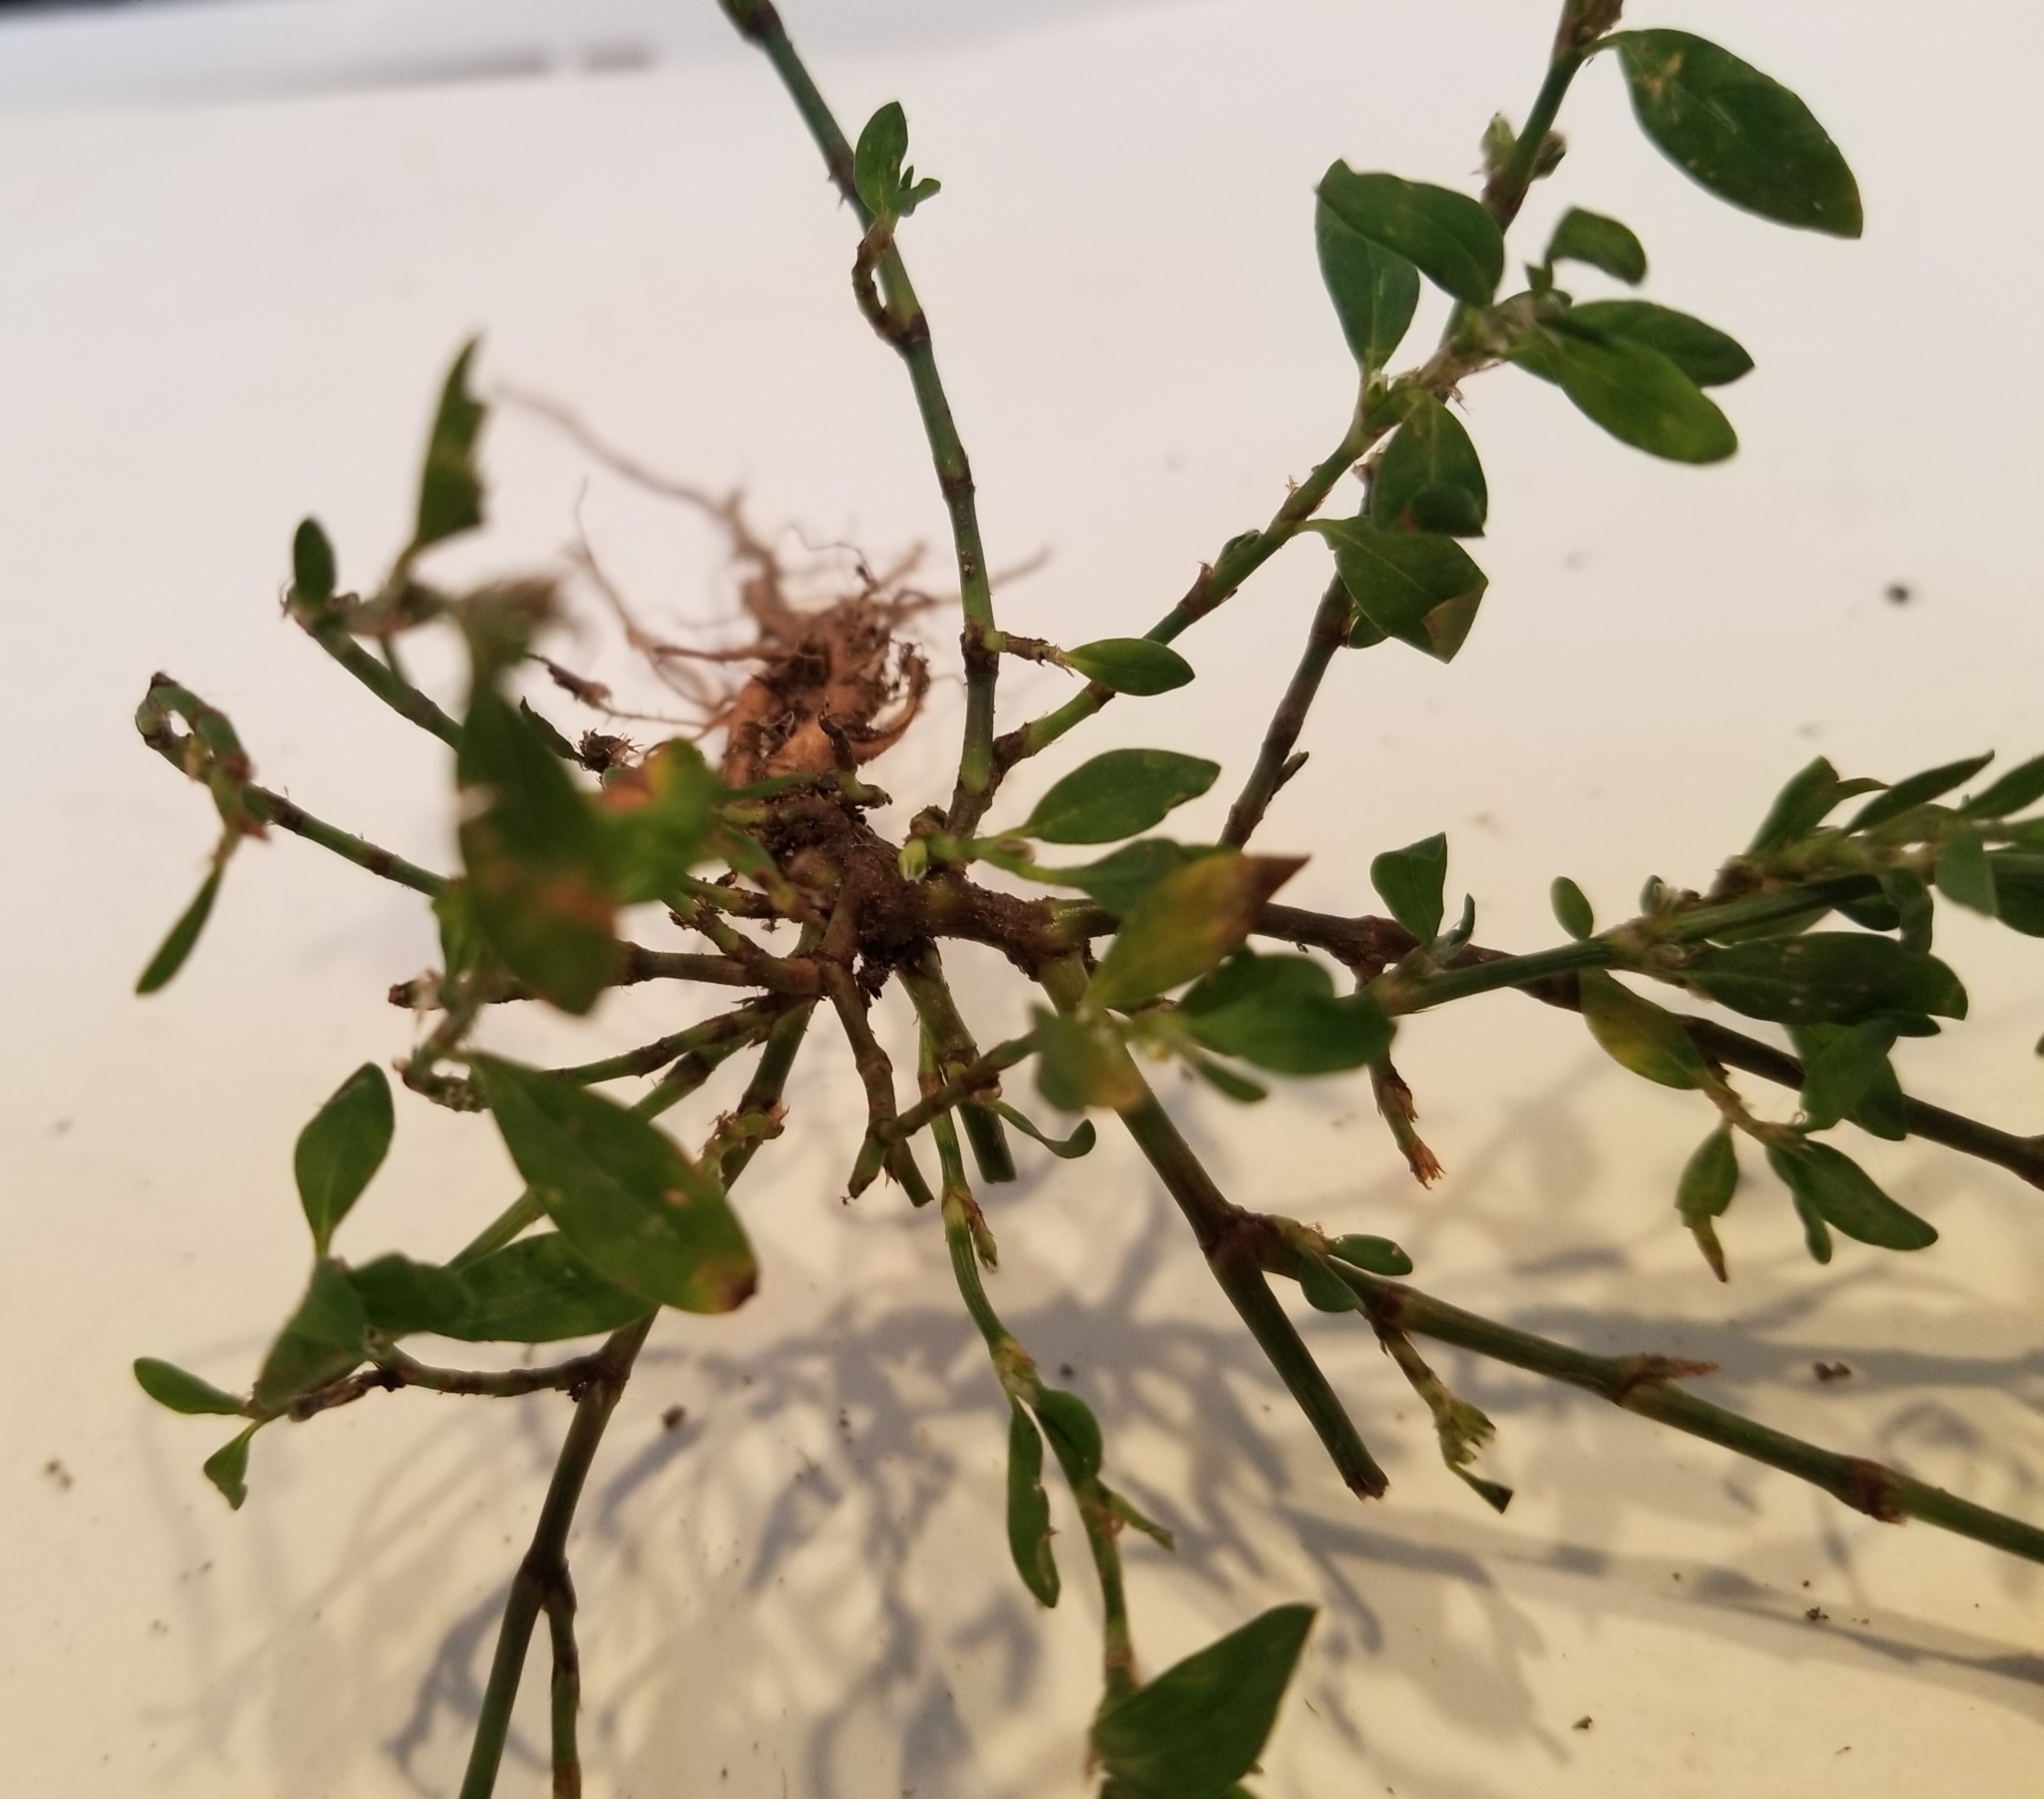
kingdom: Plantae
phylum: Tracheophyta
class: Magnoliopsida
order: Caryophyllales
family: Polygonaceae
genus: Polygonum
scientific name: Polygonum aviculare
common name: Prostrate knotweed
